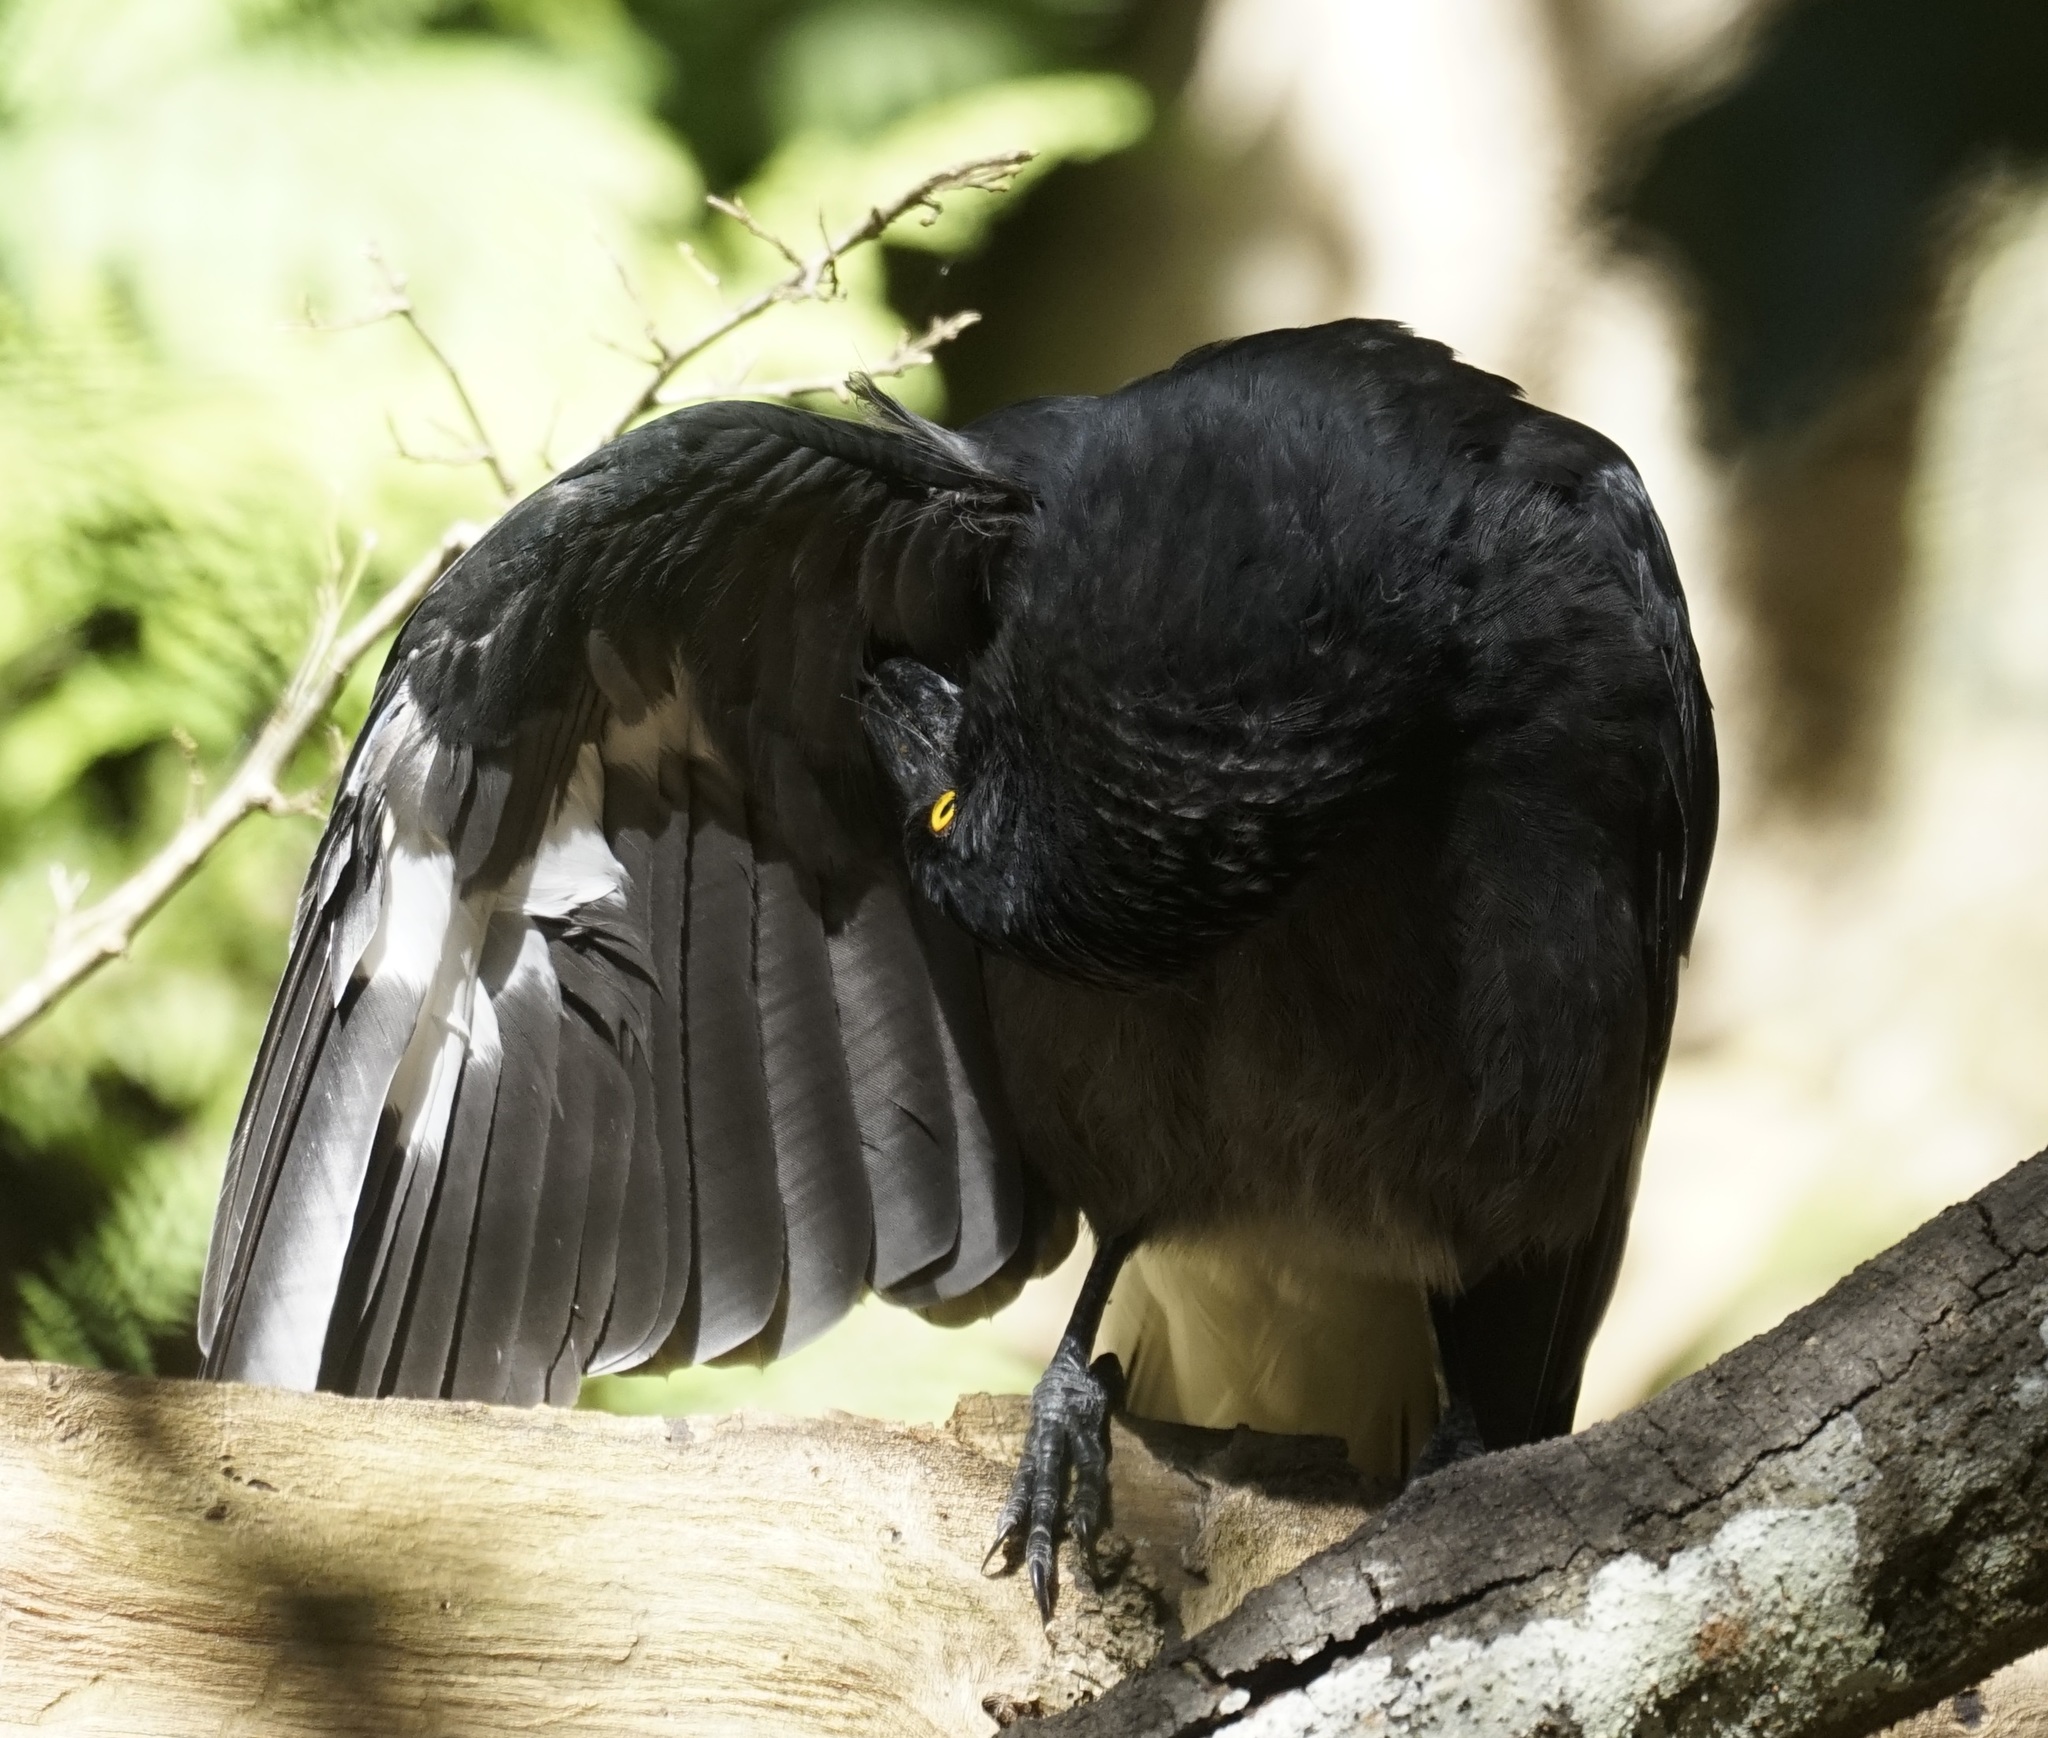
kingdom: Animalia
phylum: Chordata
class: Aves
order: Passeriformes
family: Cracticidae
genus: Strepera
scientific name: Strepera graculina
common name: Pied currawong
